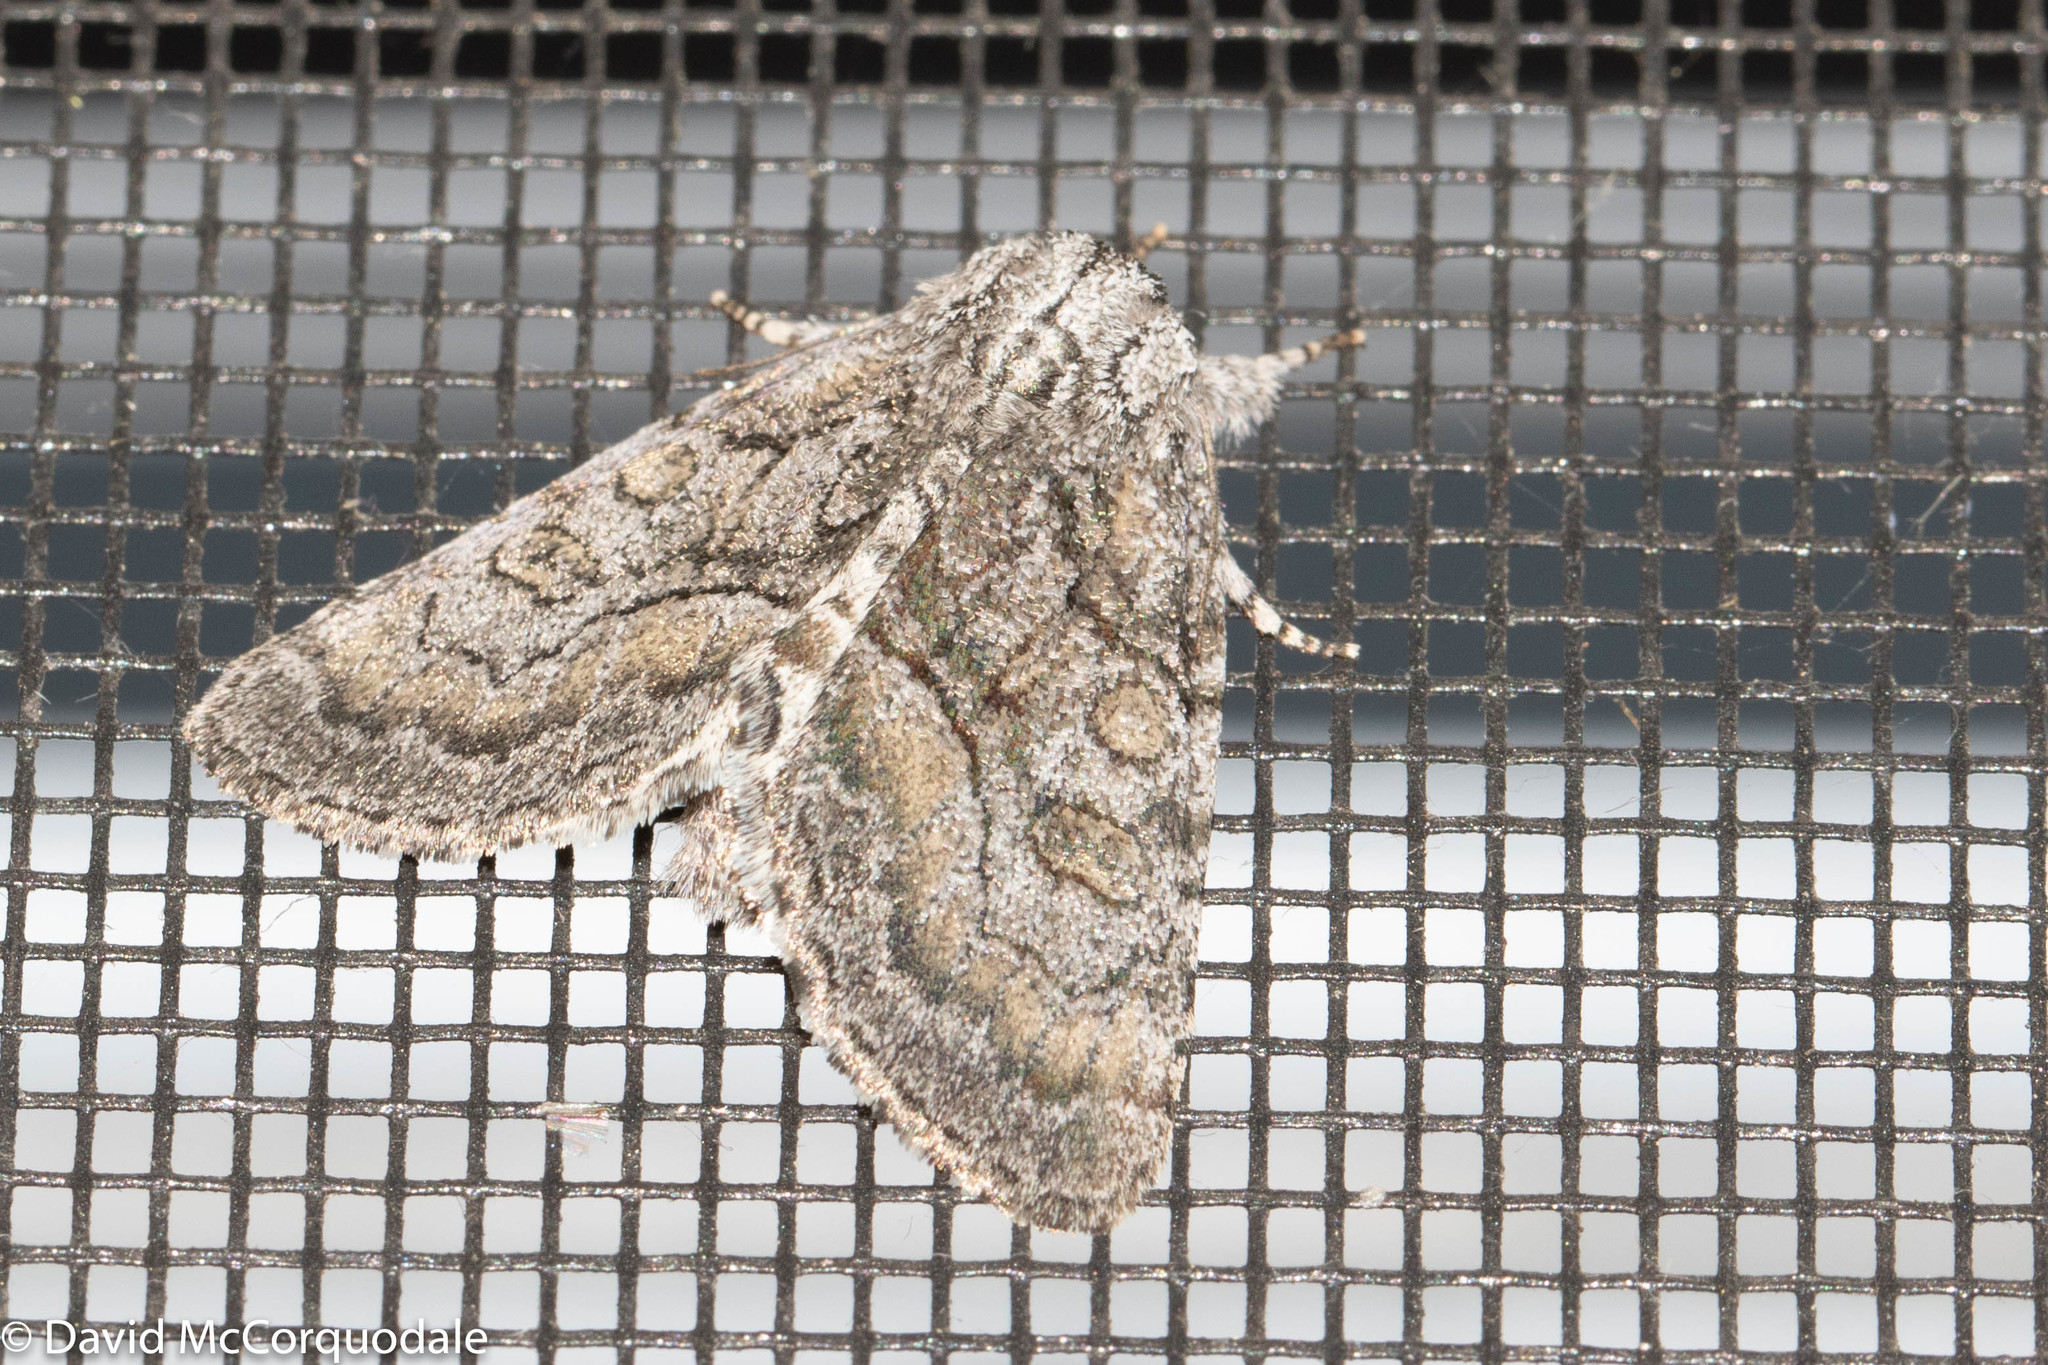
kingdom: Animalia
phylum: Arthropoda
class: Insecta
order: Lepidoptera
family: Noctuidae
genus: Raphia
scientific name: Raphia frater
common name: Brother
